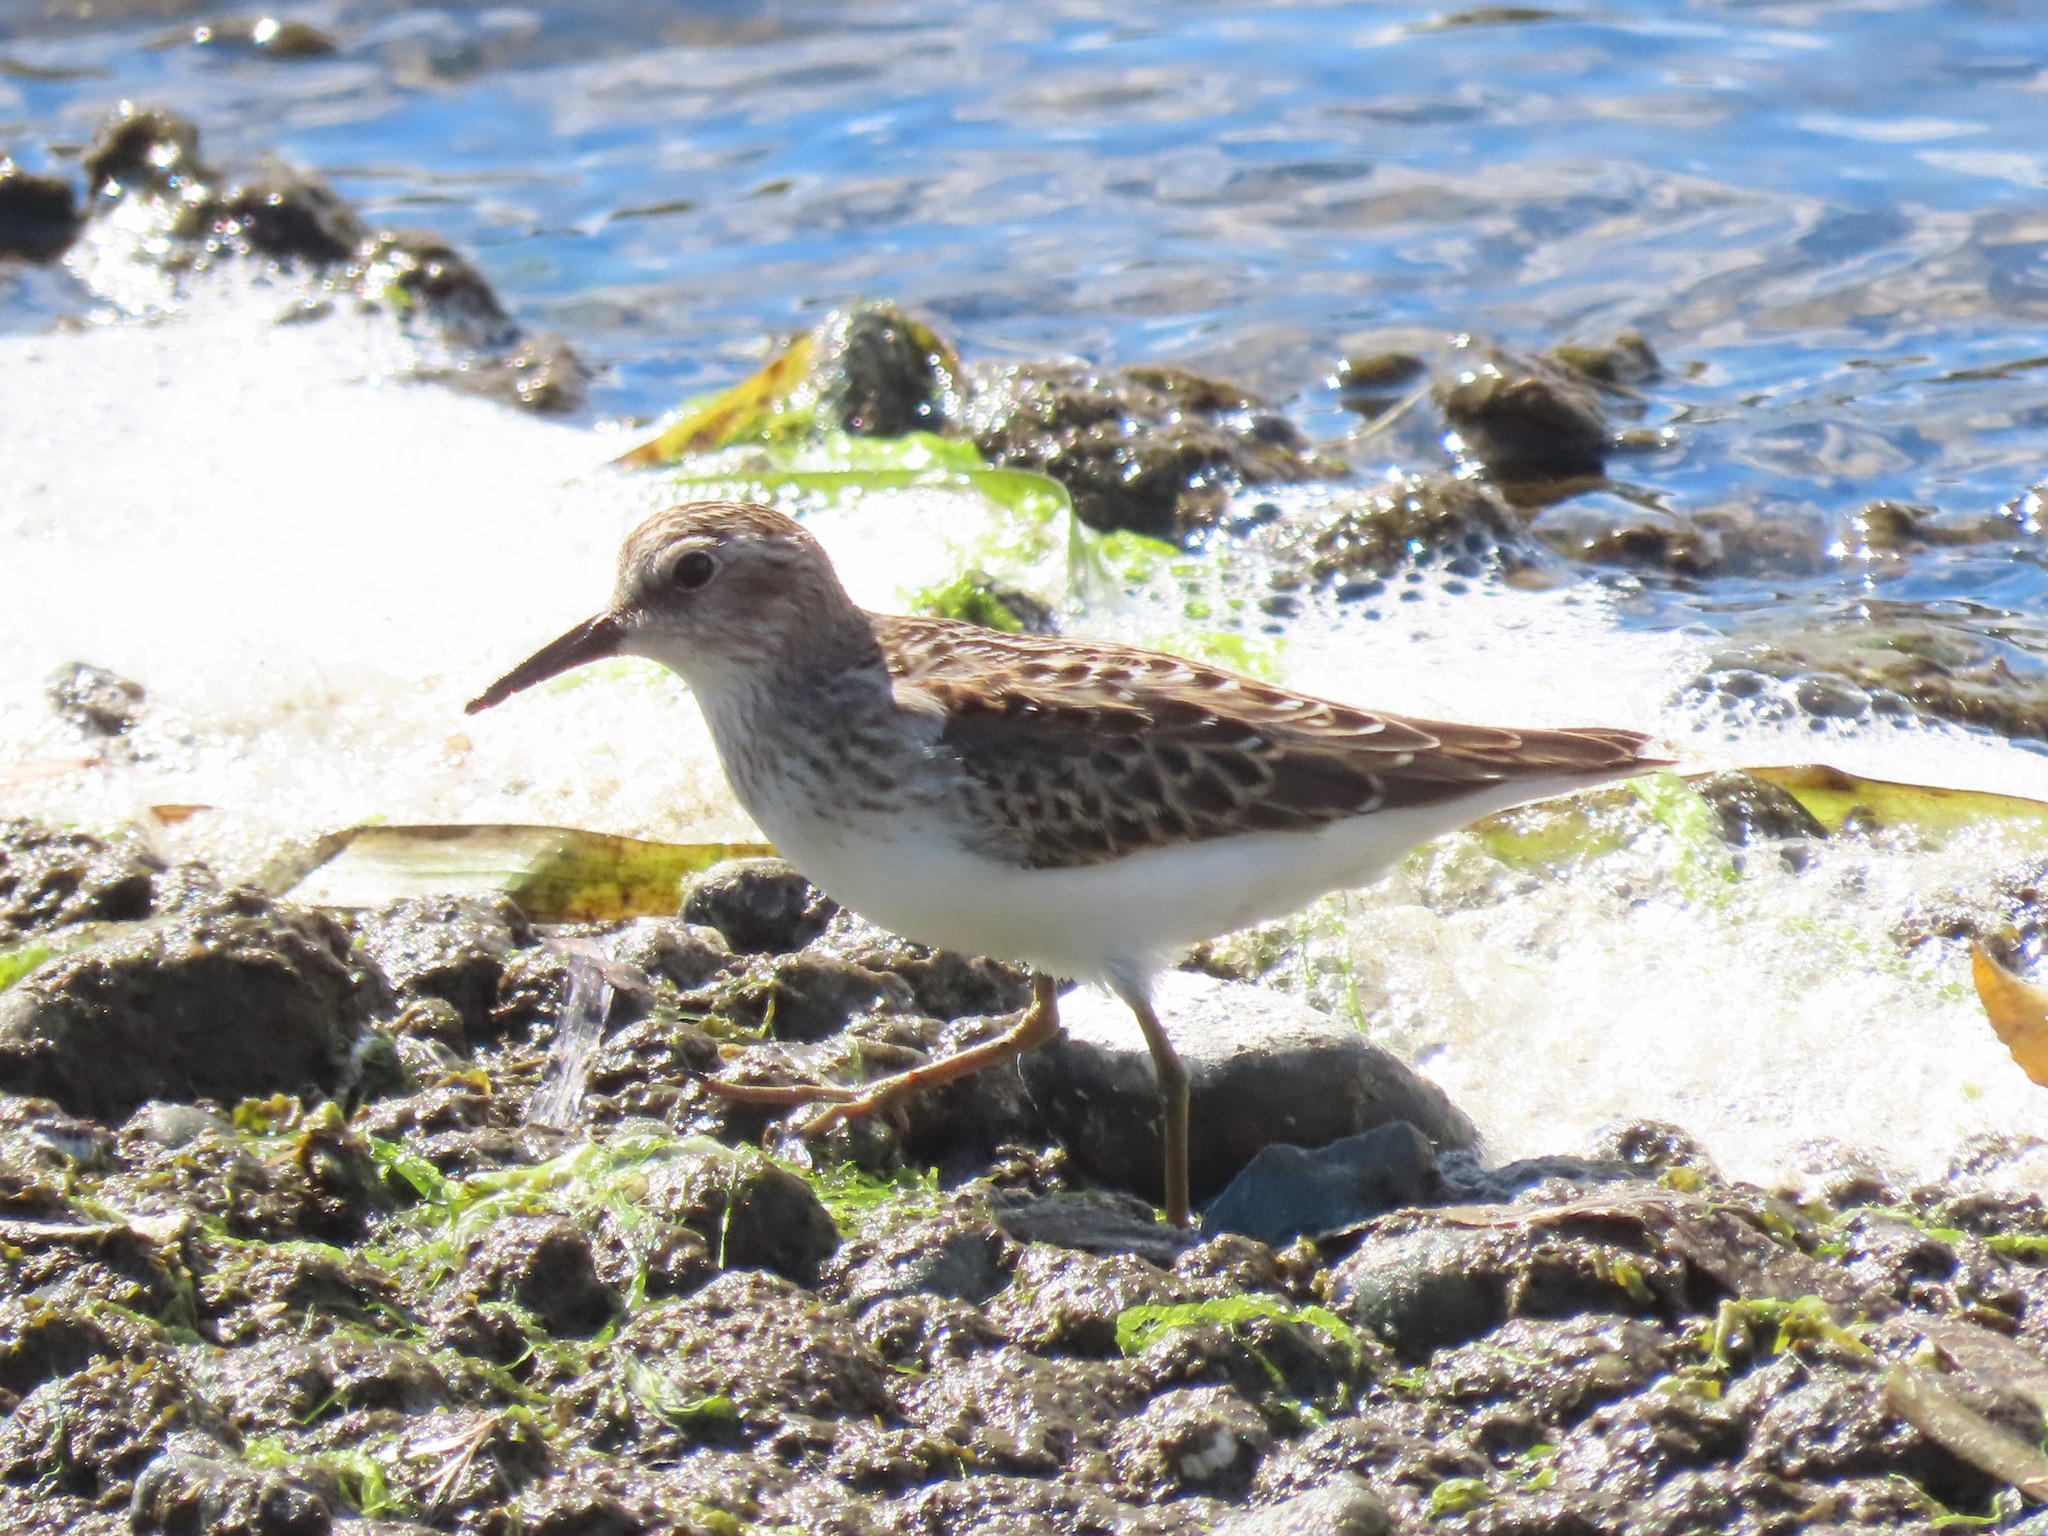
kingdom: Animalia
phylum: Chordata
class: Aves
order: Charadriiformes
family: Scolopacidae
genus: Calidris
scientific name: Calidris minutilla
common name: Least sandpiper
